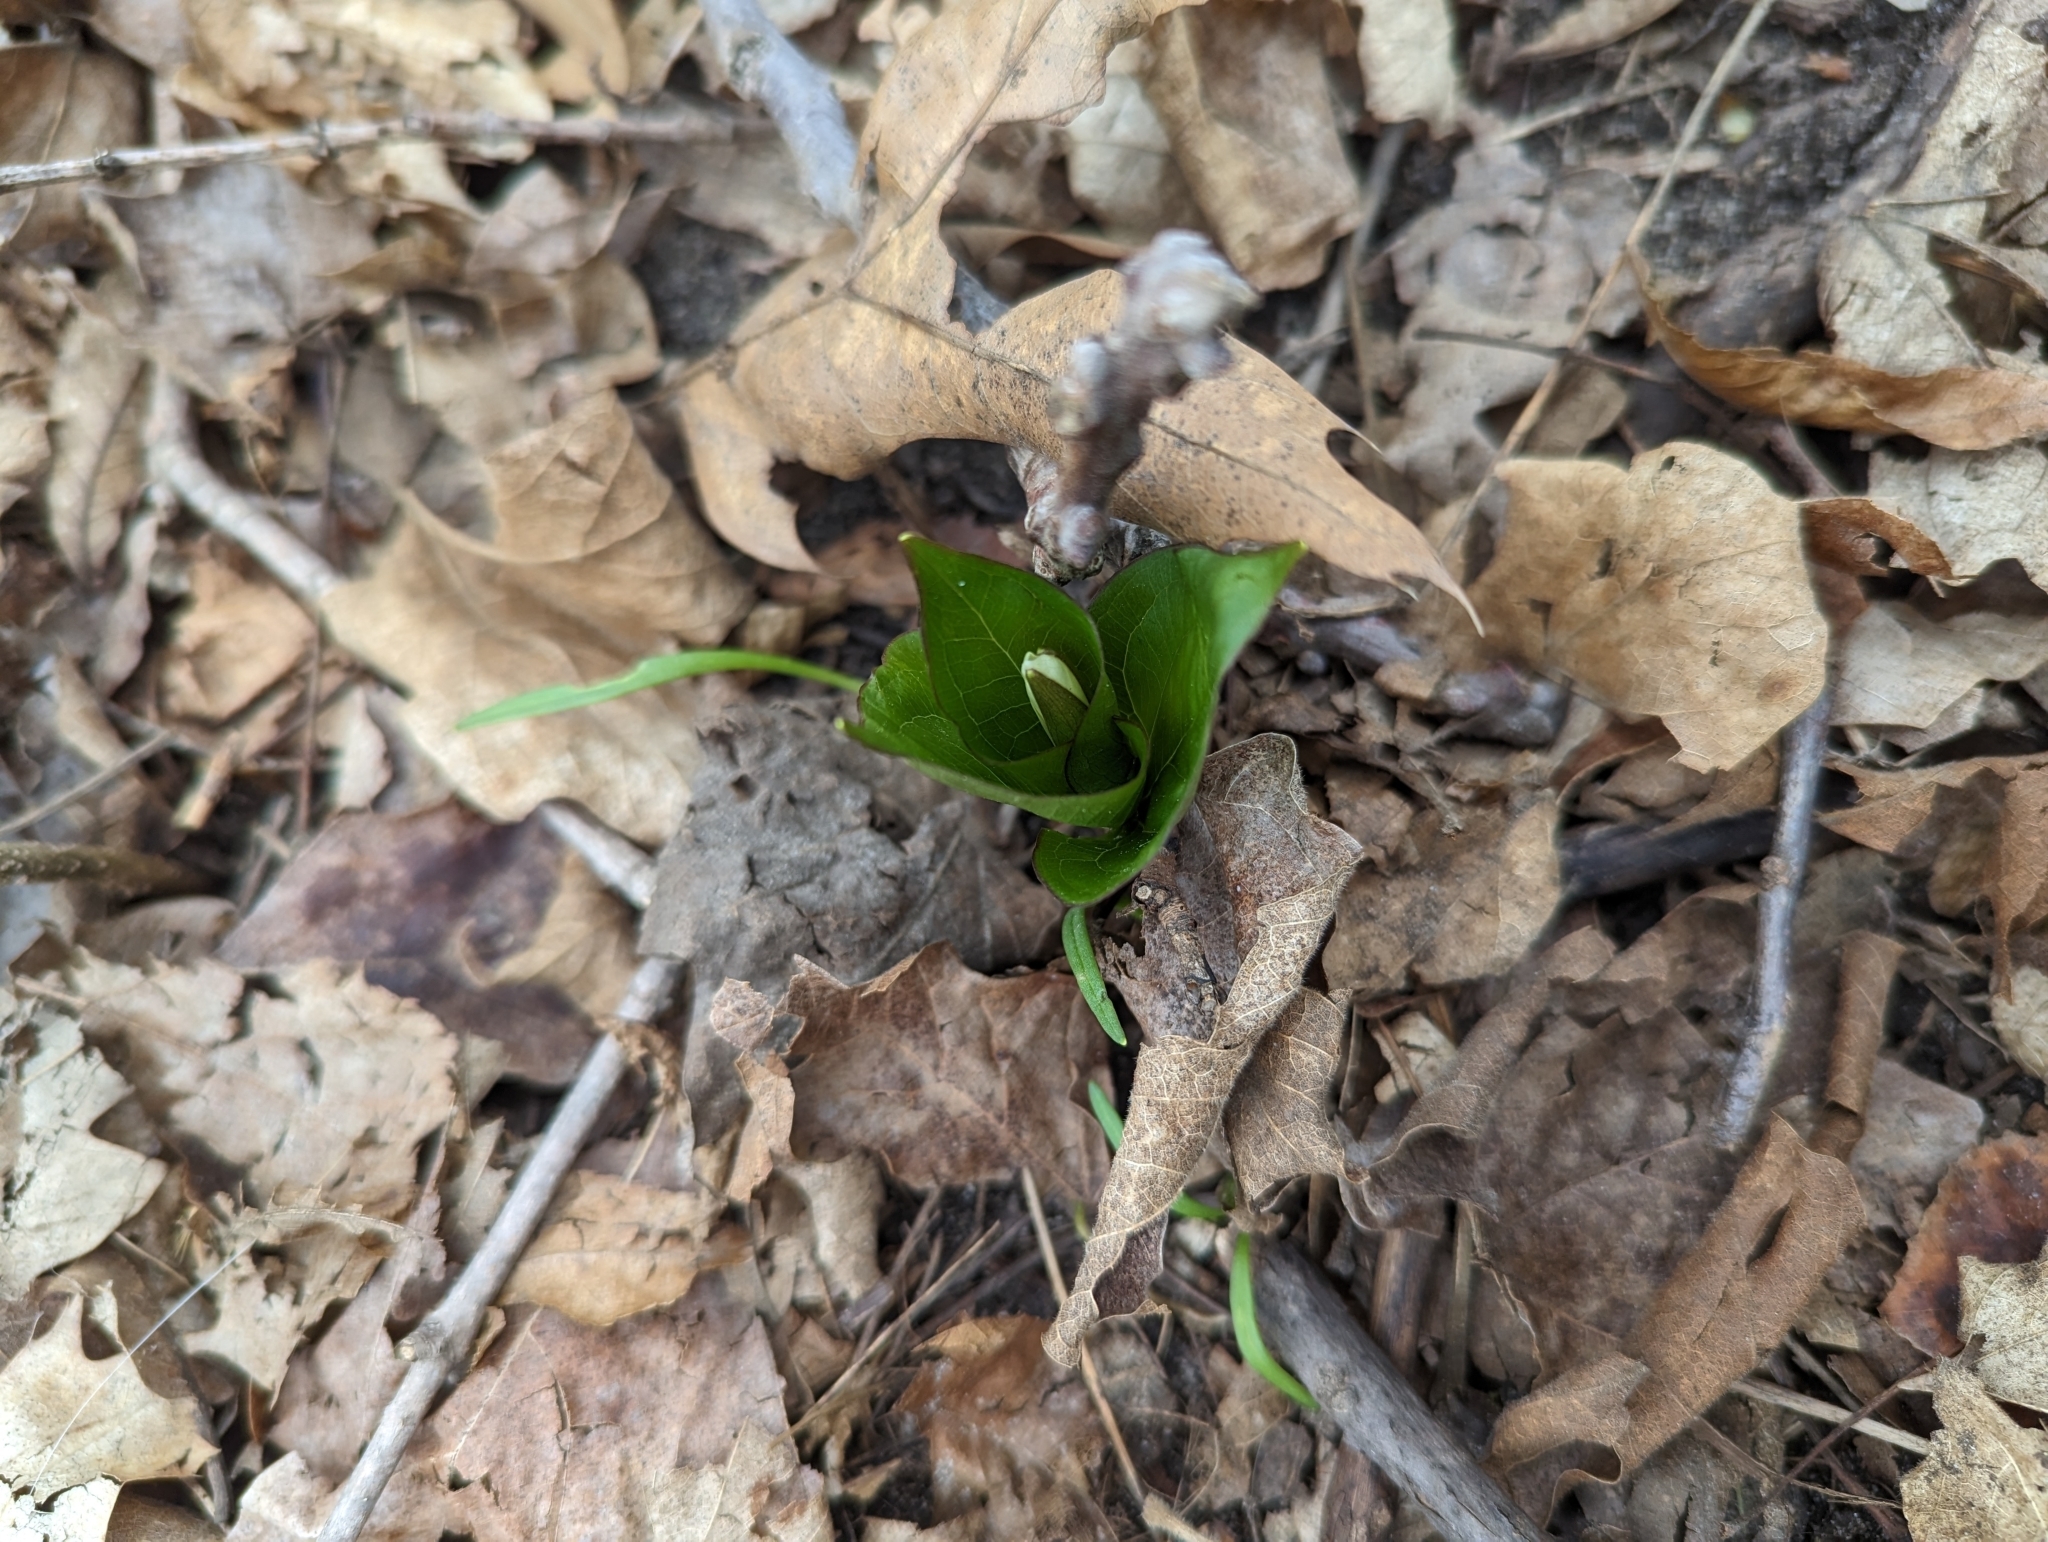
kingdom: Plantae
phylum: Tracheophyta
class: Liliopsida
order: Liliales
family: Melanthiaceae
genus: Trillium
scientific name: Trillium grandiflorum
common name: Great white trillium
